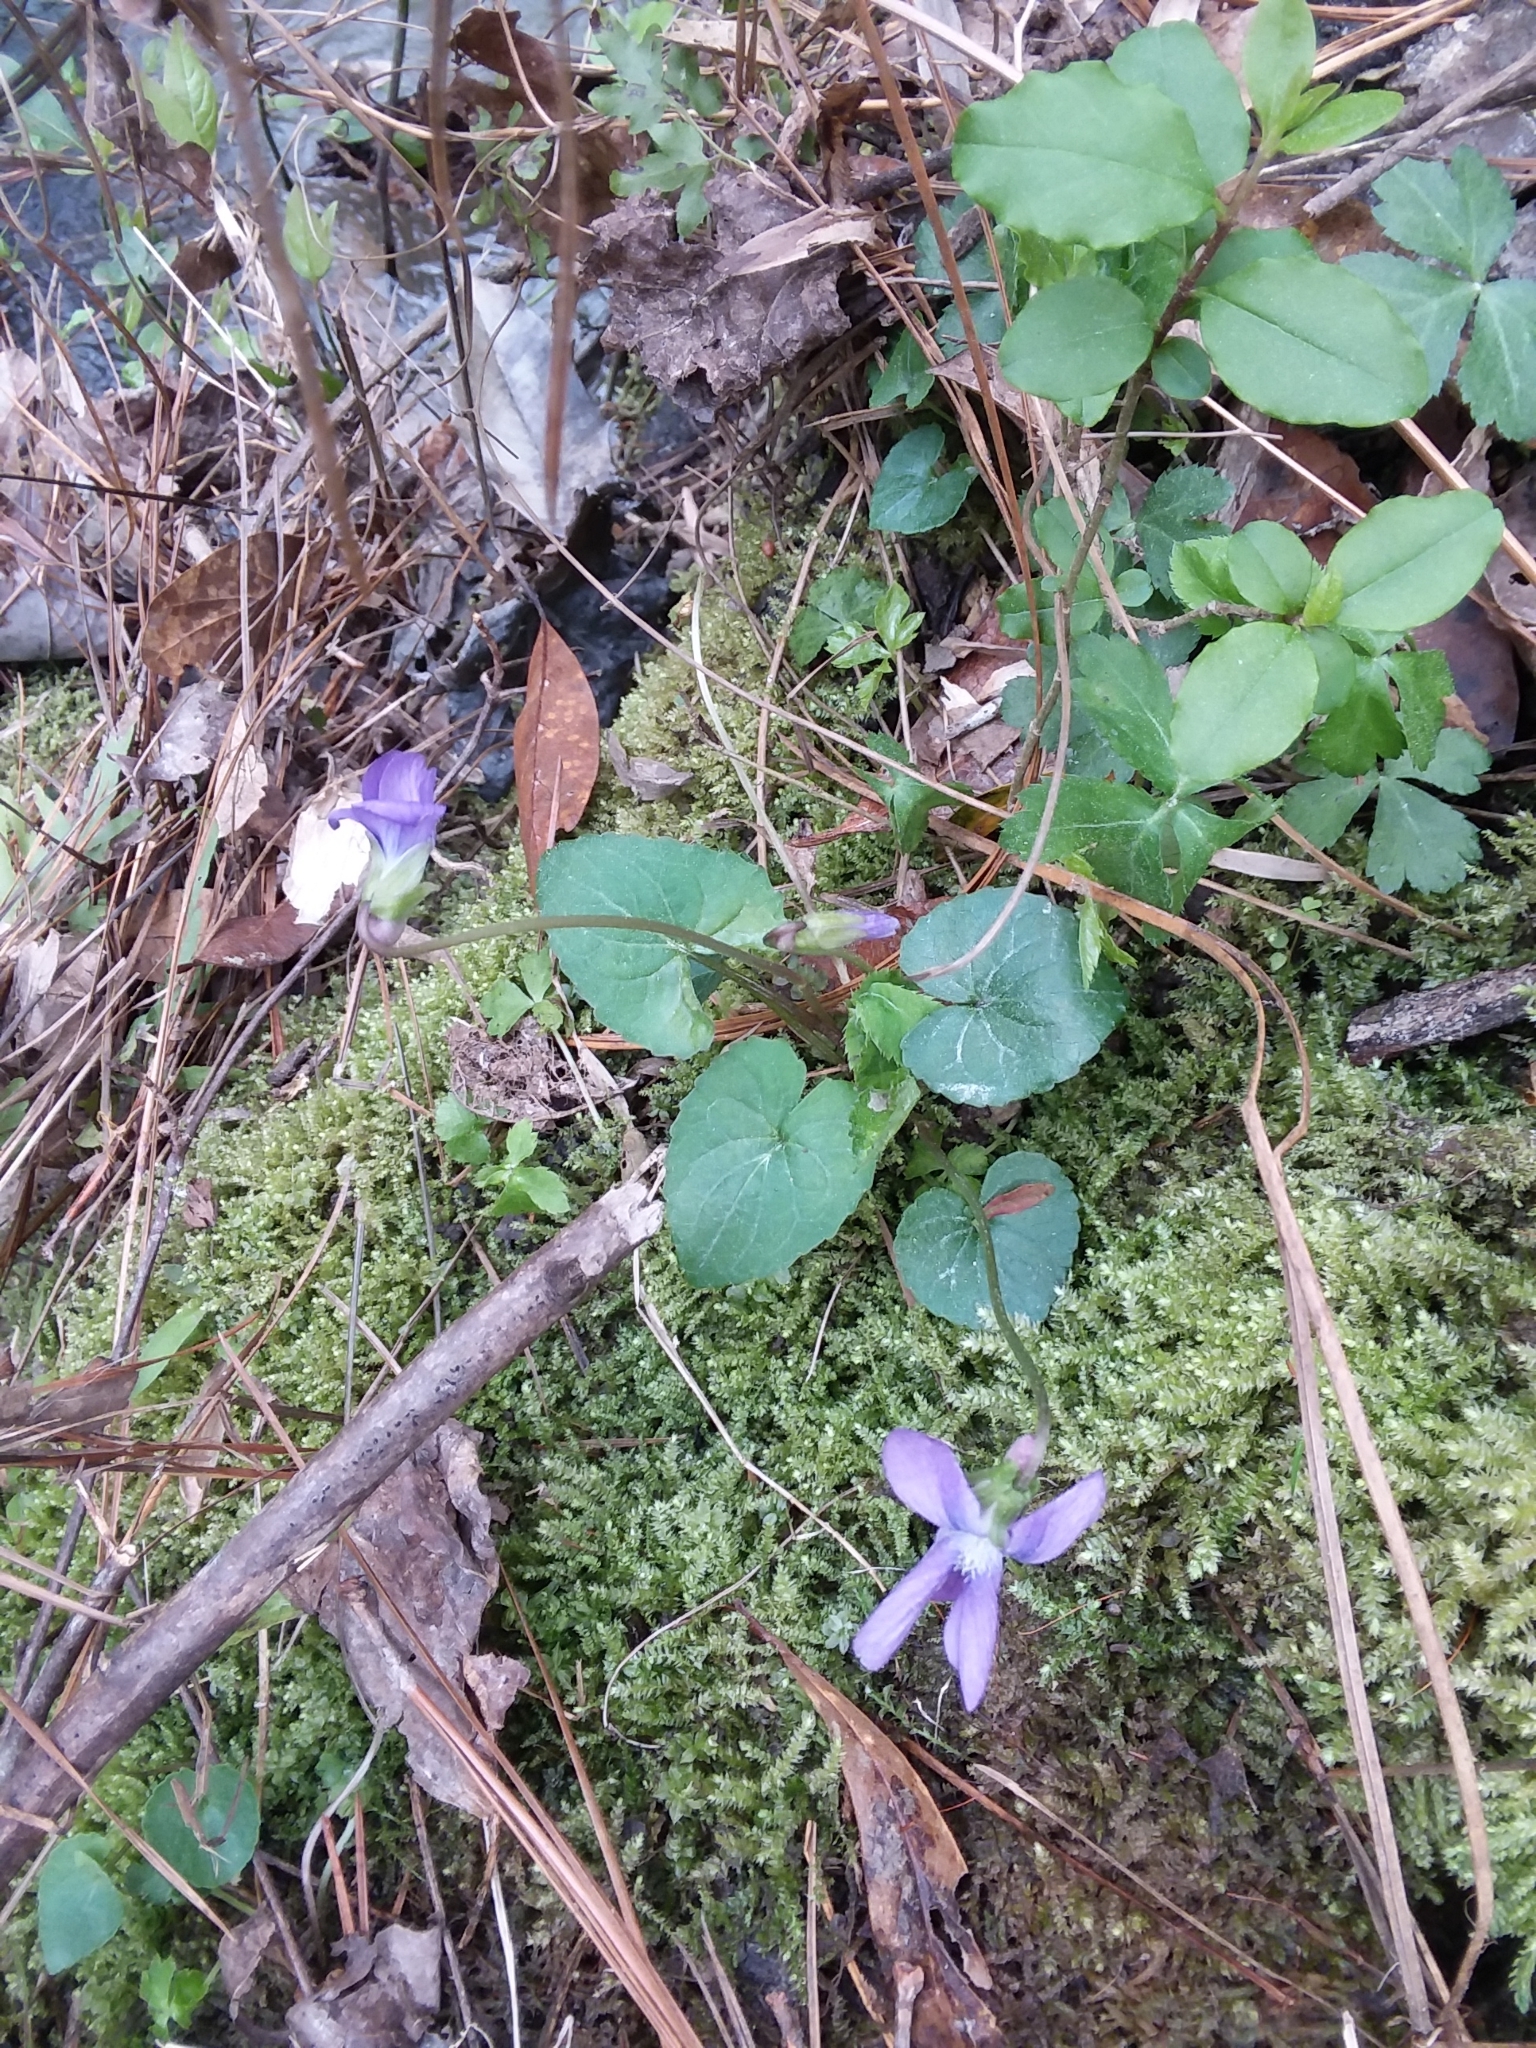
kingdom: Plantae
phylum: Tracheophyta
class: Magnoliopsida
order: Malpighiales
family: Violaceae
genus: Viola
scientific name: Viola sororia
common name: Dooryard violet
